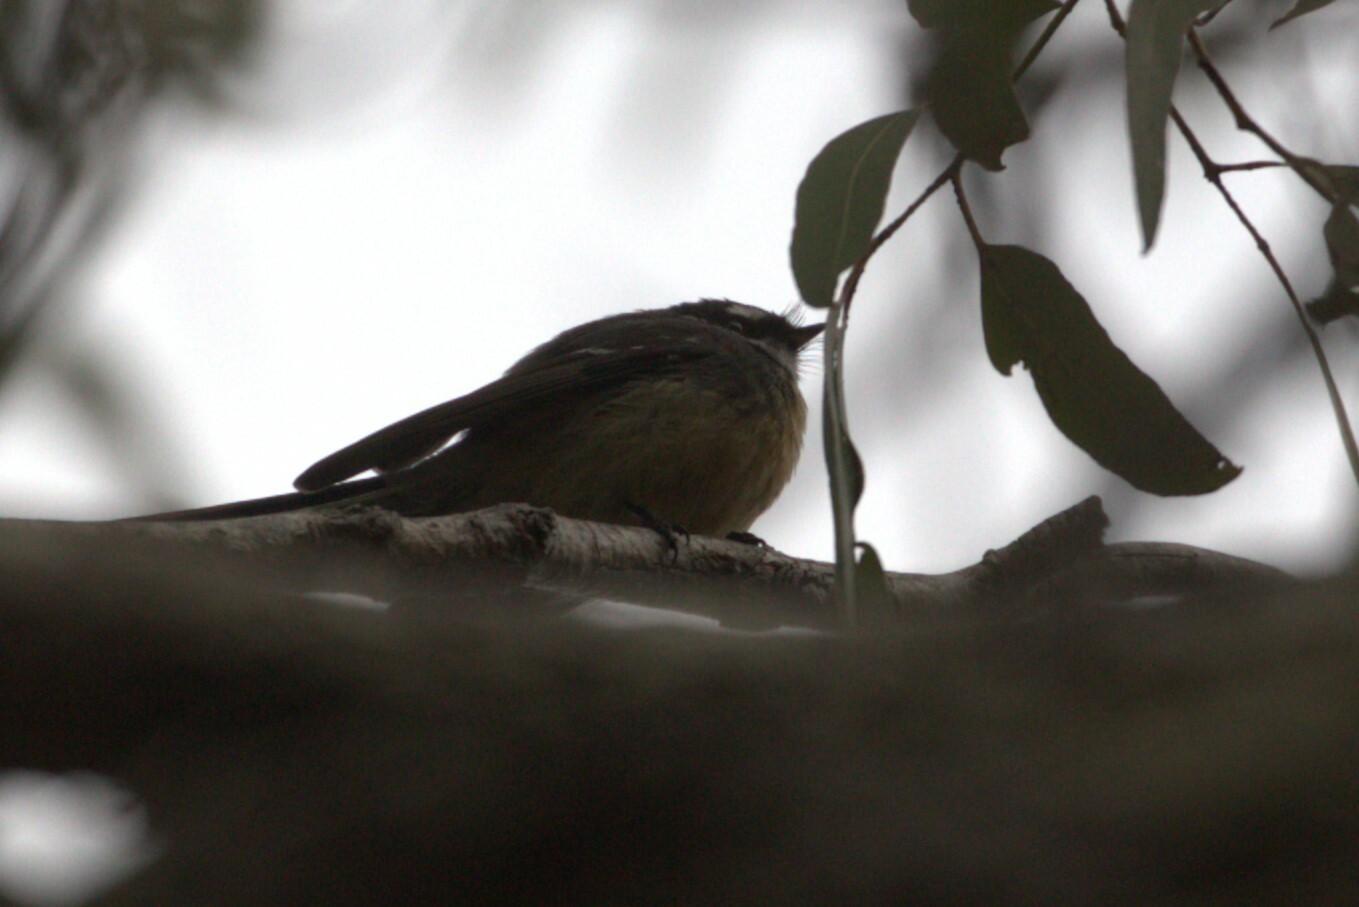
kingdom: Animalia
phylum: Chordata
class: Aves
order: Passeriformes
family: Rhipiduridae
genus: Rhipidura
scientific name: Rhipidura albiscapa
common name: Grey fantail
